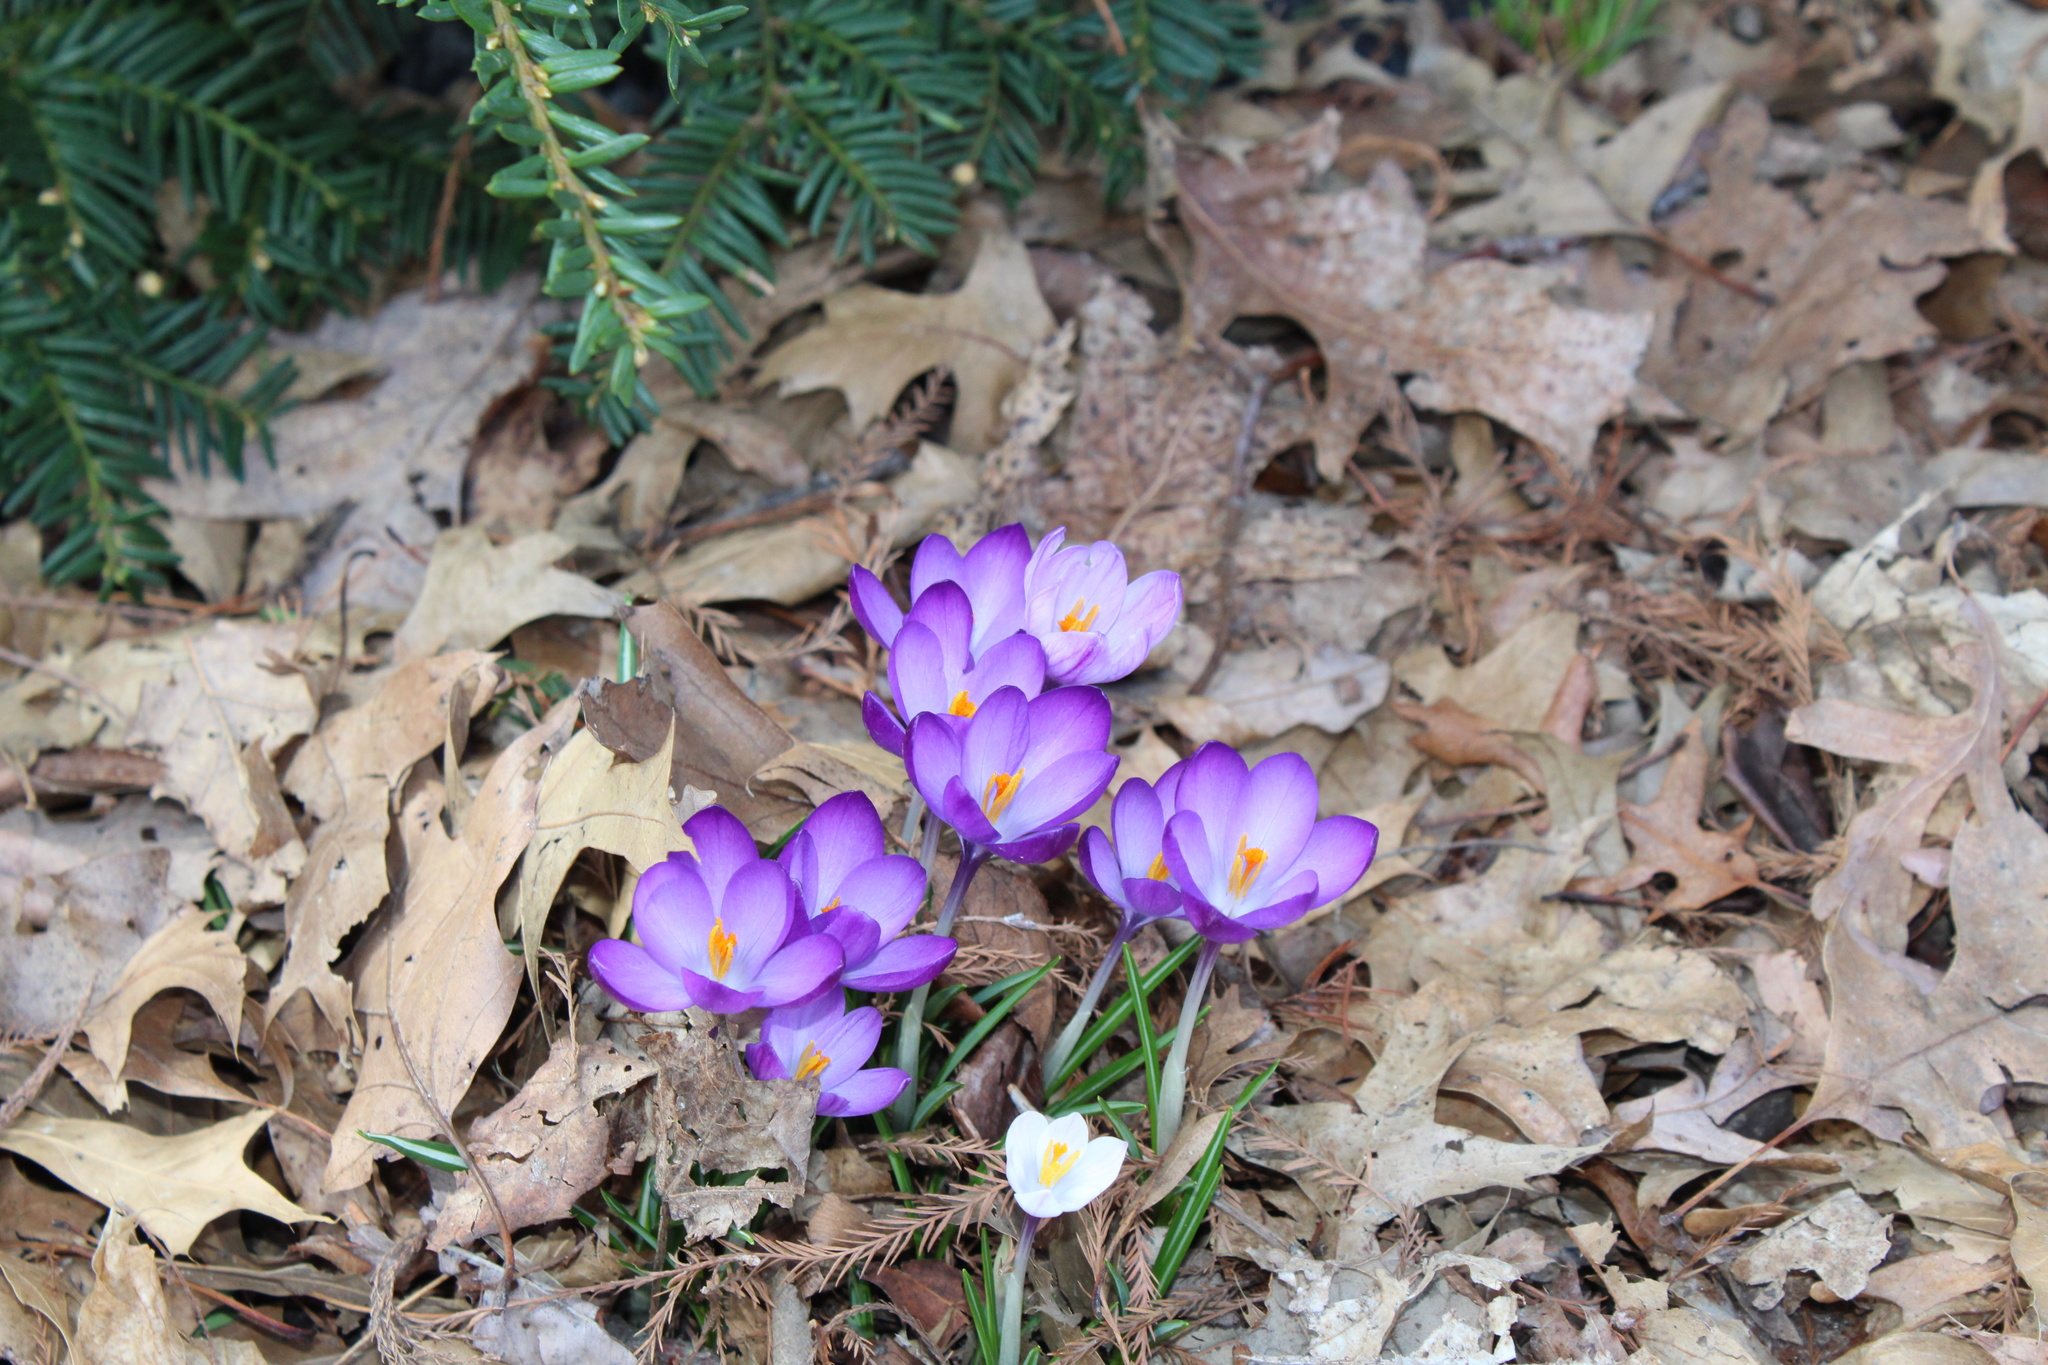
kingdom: Plantae
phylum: Tracheophyta
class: Liliopsida
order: Asparagales
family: Iridaceae
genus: Crocus
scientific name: Crocus tommasinianus
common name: Early crocus
